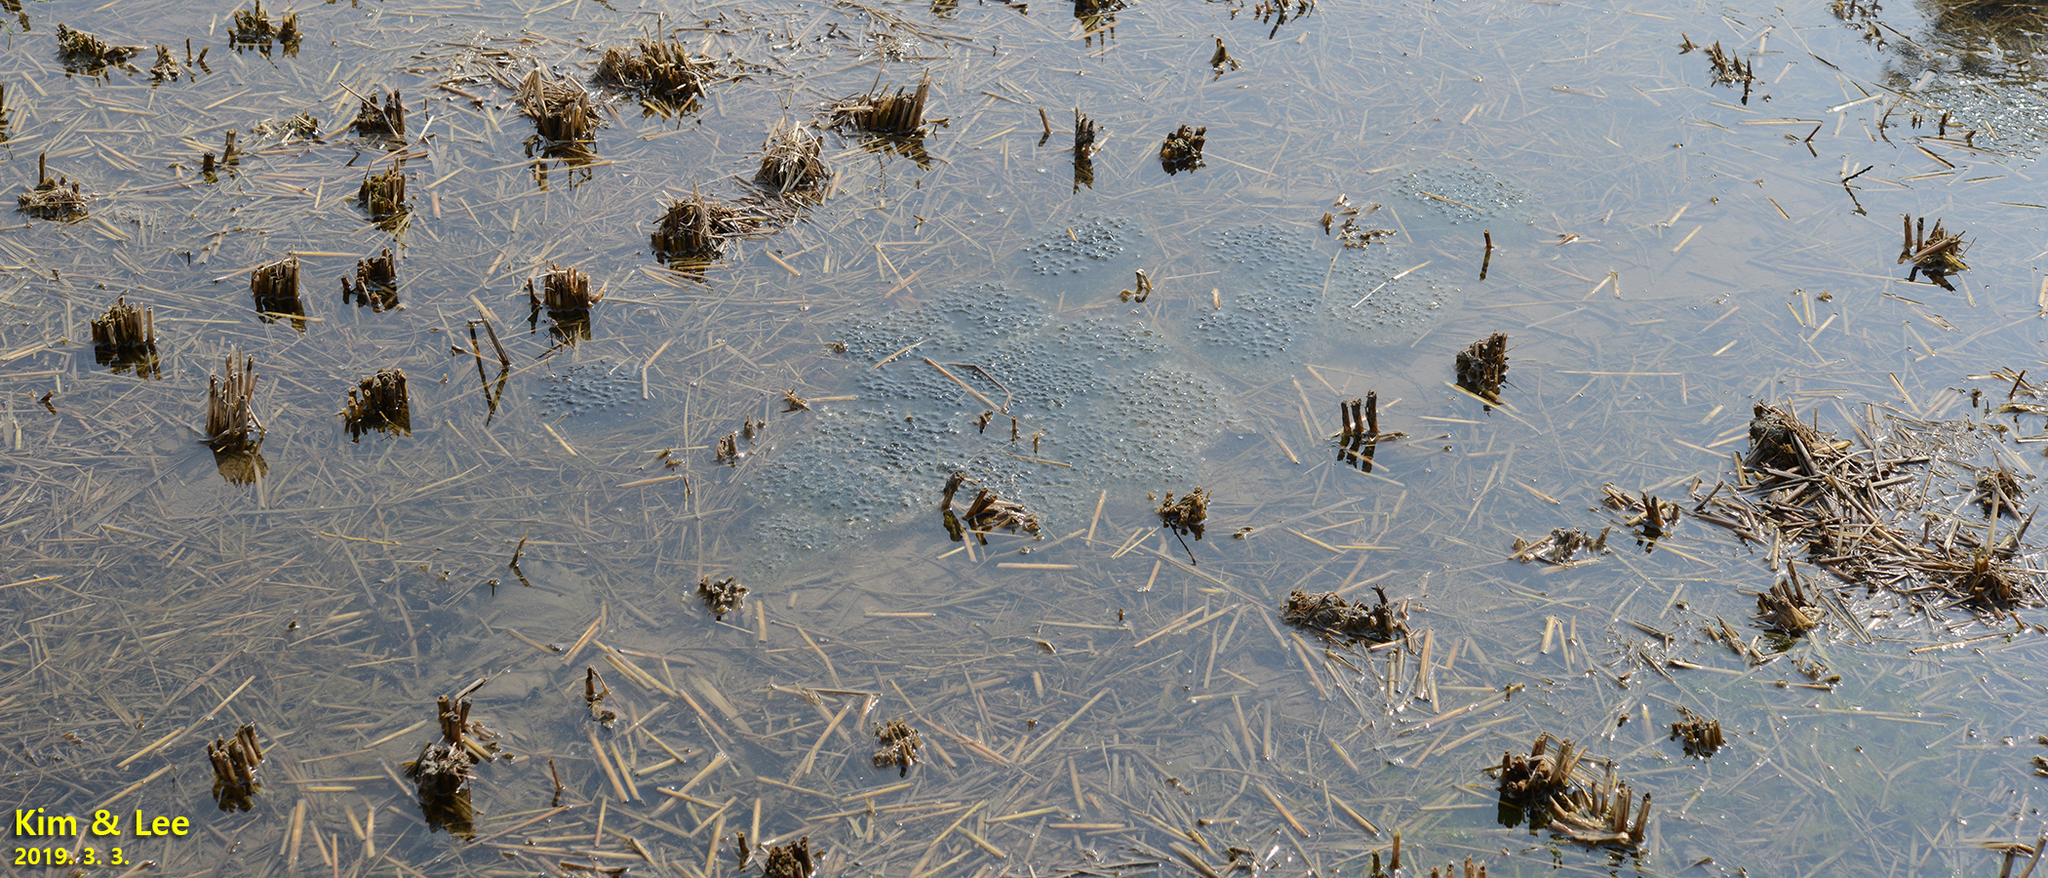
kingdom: Animalia
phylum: Chordata
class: Amphibia
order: Anura
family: Ranidae
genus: Rana
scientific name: Rana uenoi
